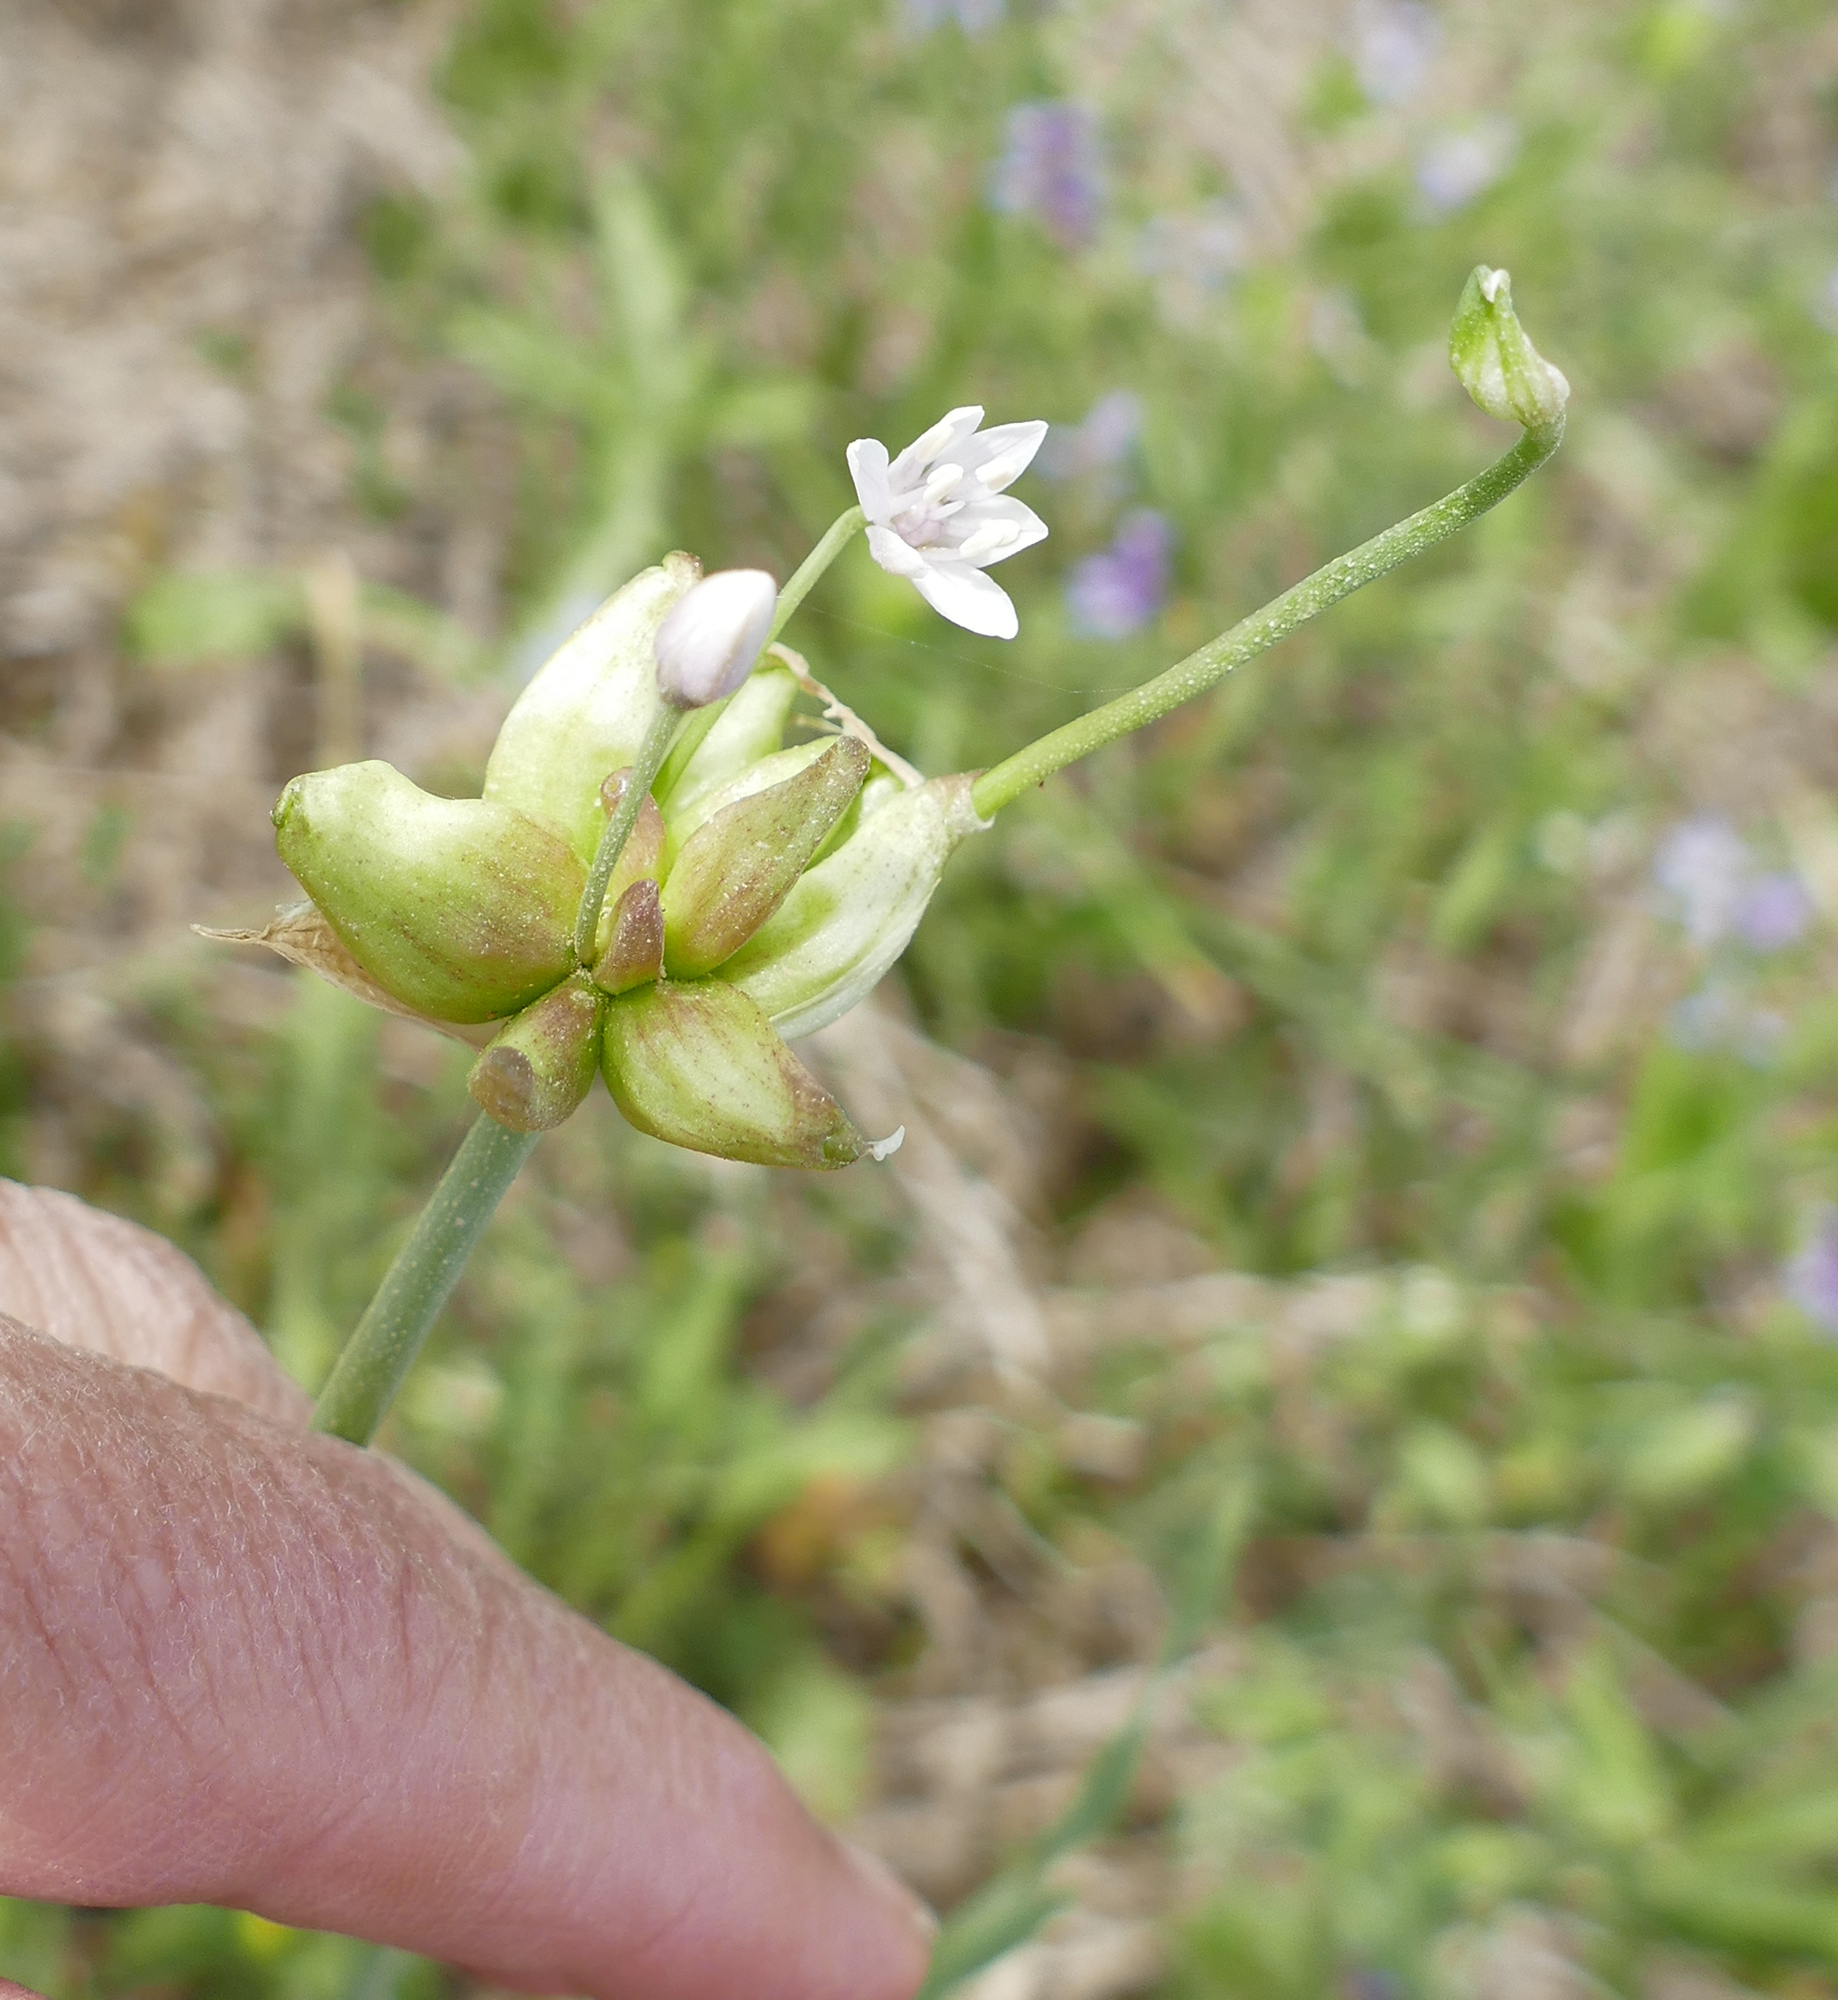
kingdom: Plantae
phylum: Tracheophyta
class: Liliopsida
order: Asparagales
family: Amaryllidaceae
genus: Allium
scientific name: Allium canadense
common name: Meadow garlic
